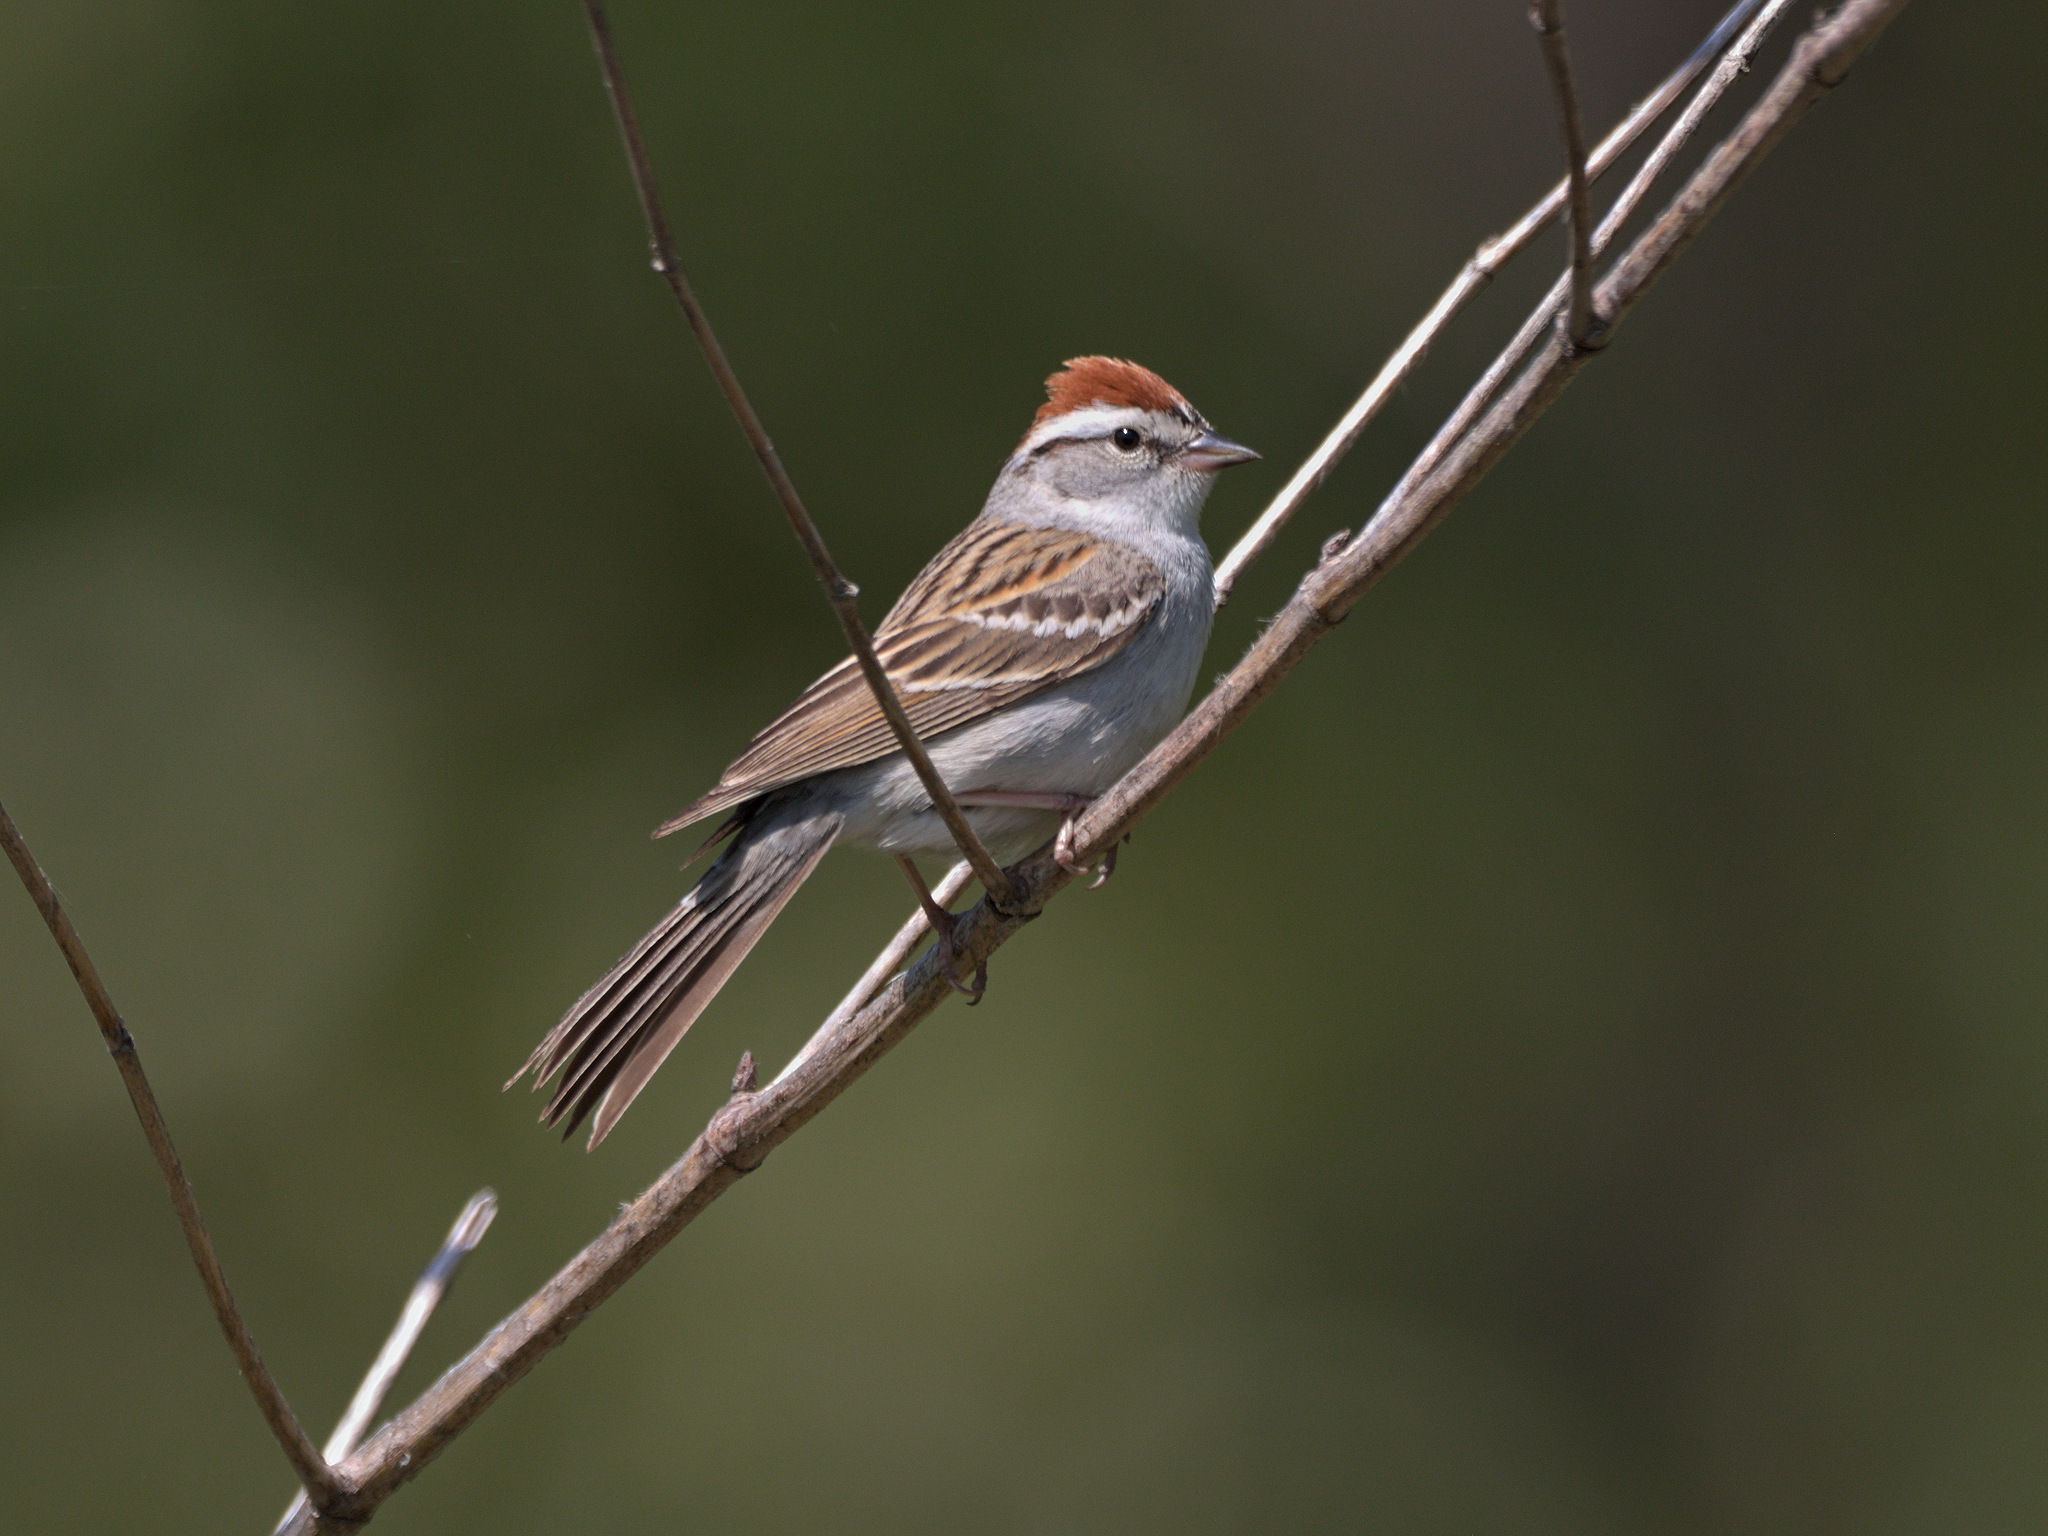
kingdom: Animalia
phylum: Chordata
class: Aves
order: Passeriformes
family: Passerellidae
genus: Spizella
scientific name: Spizella passerina
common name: Chipping sparrow
